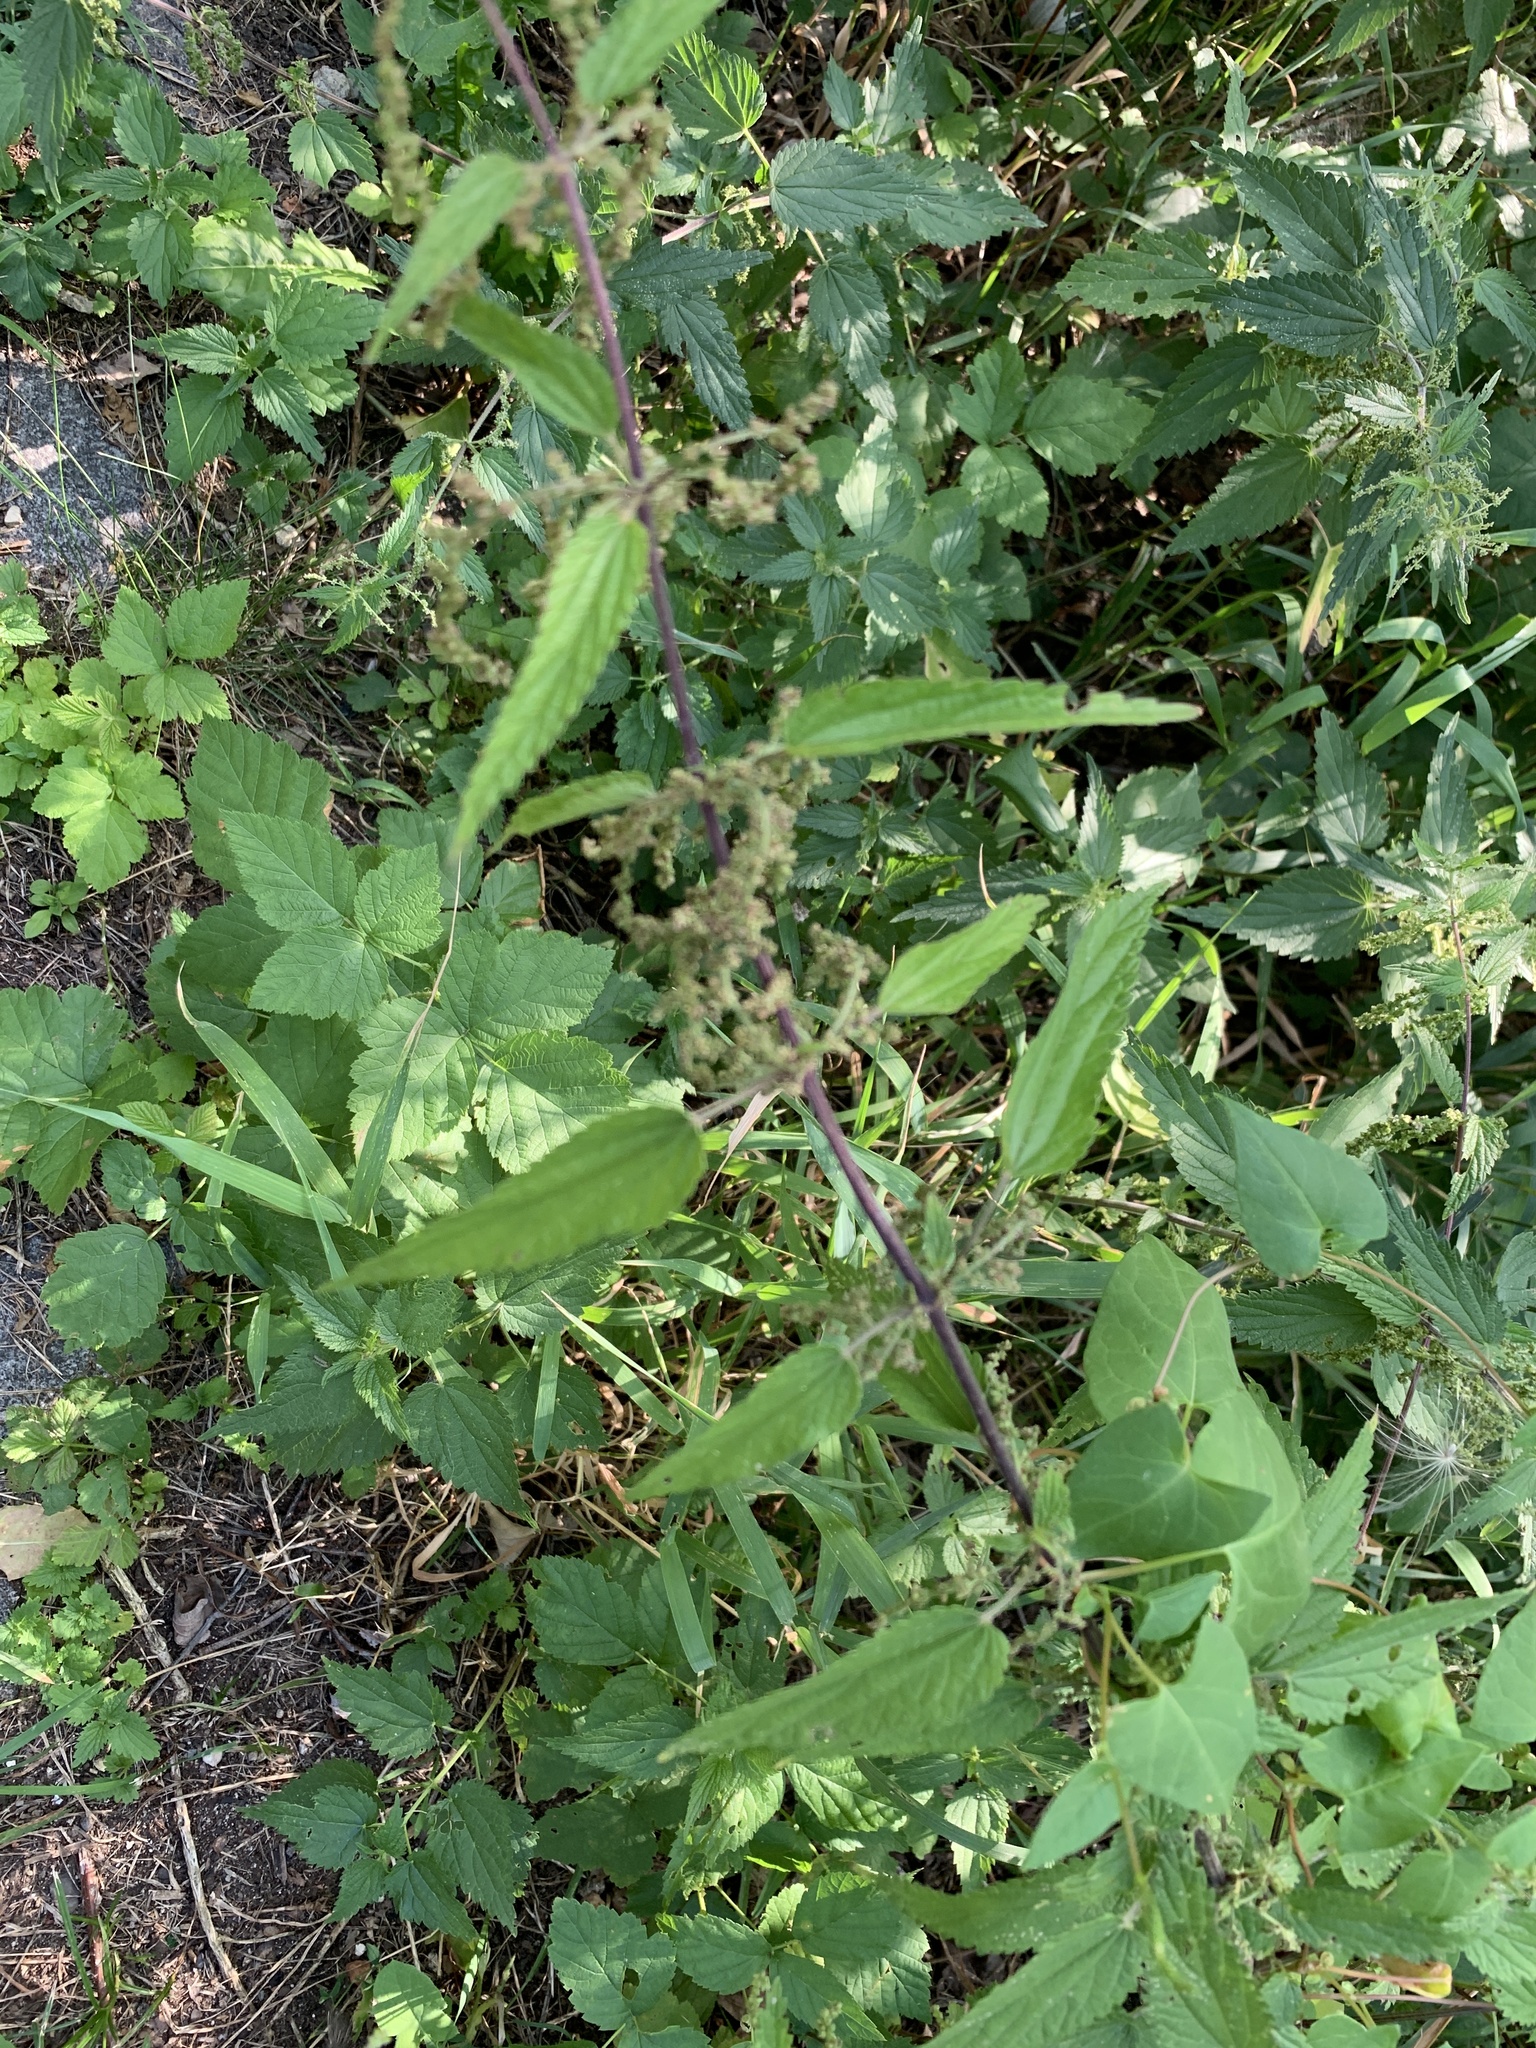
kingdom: Plantae
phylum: Tracheophyta
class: Magnoliopsida
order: Rosales
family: Urticaceae
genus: Urtica
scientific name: Urtica dioica
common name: Common nettle
